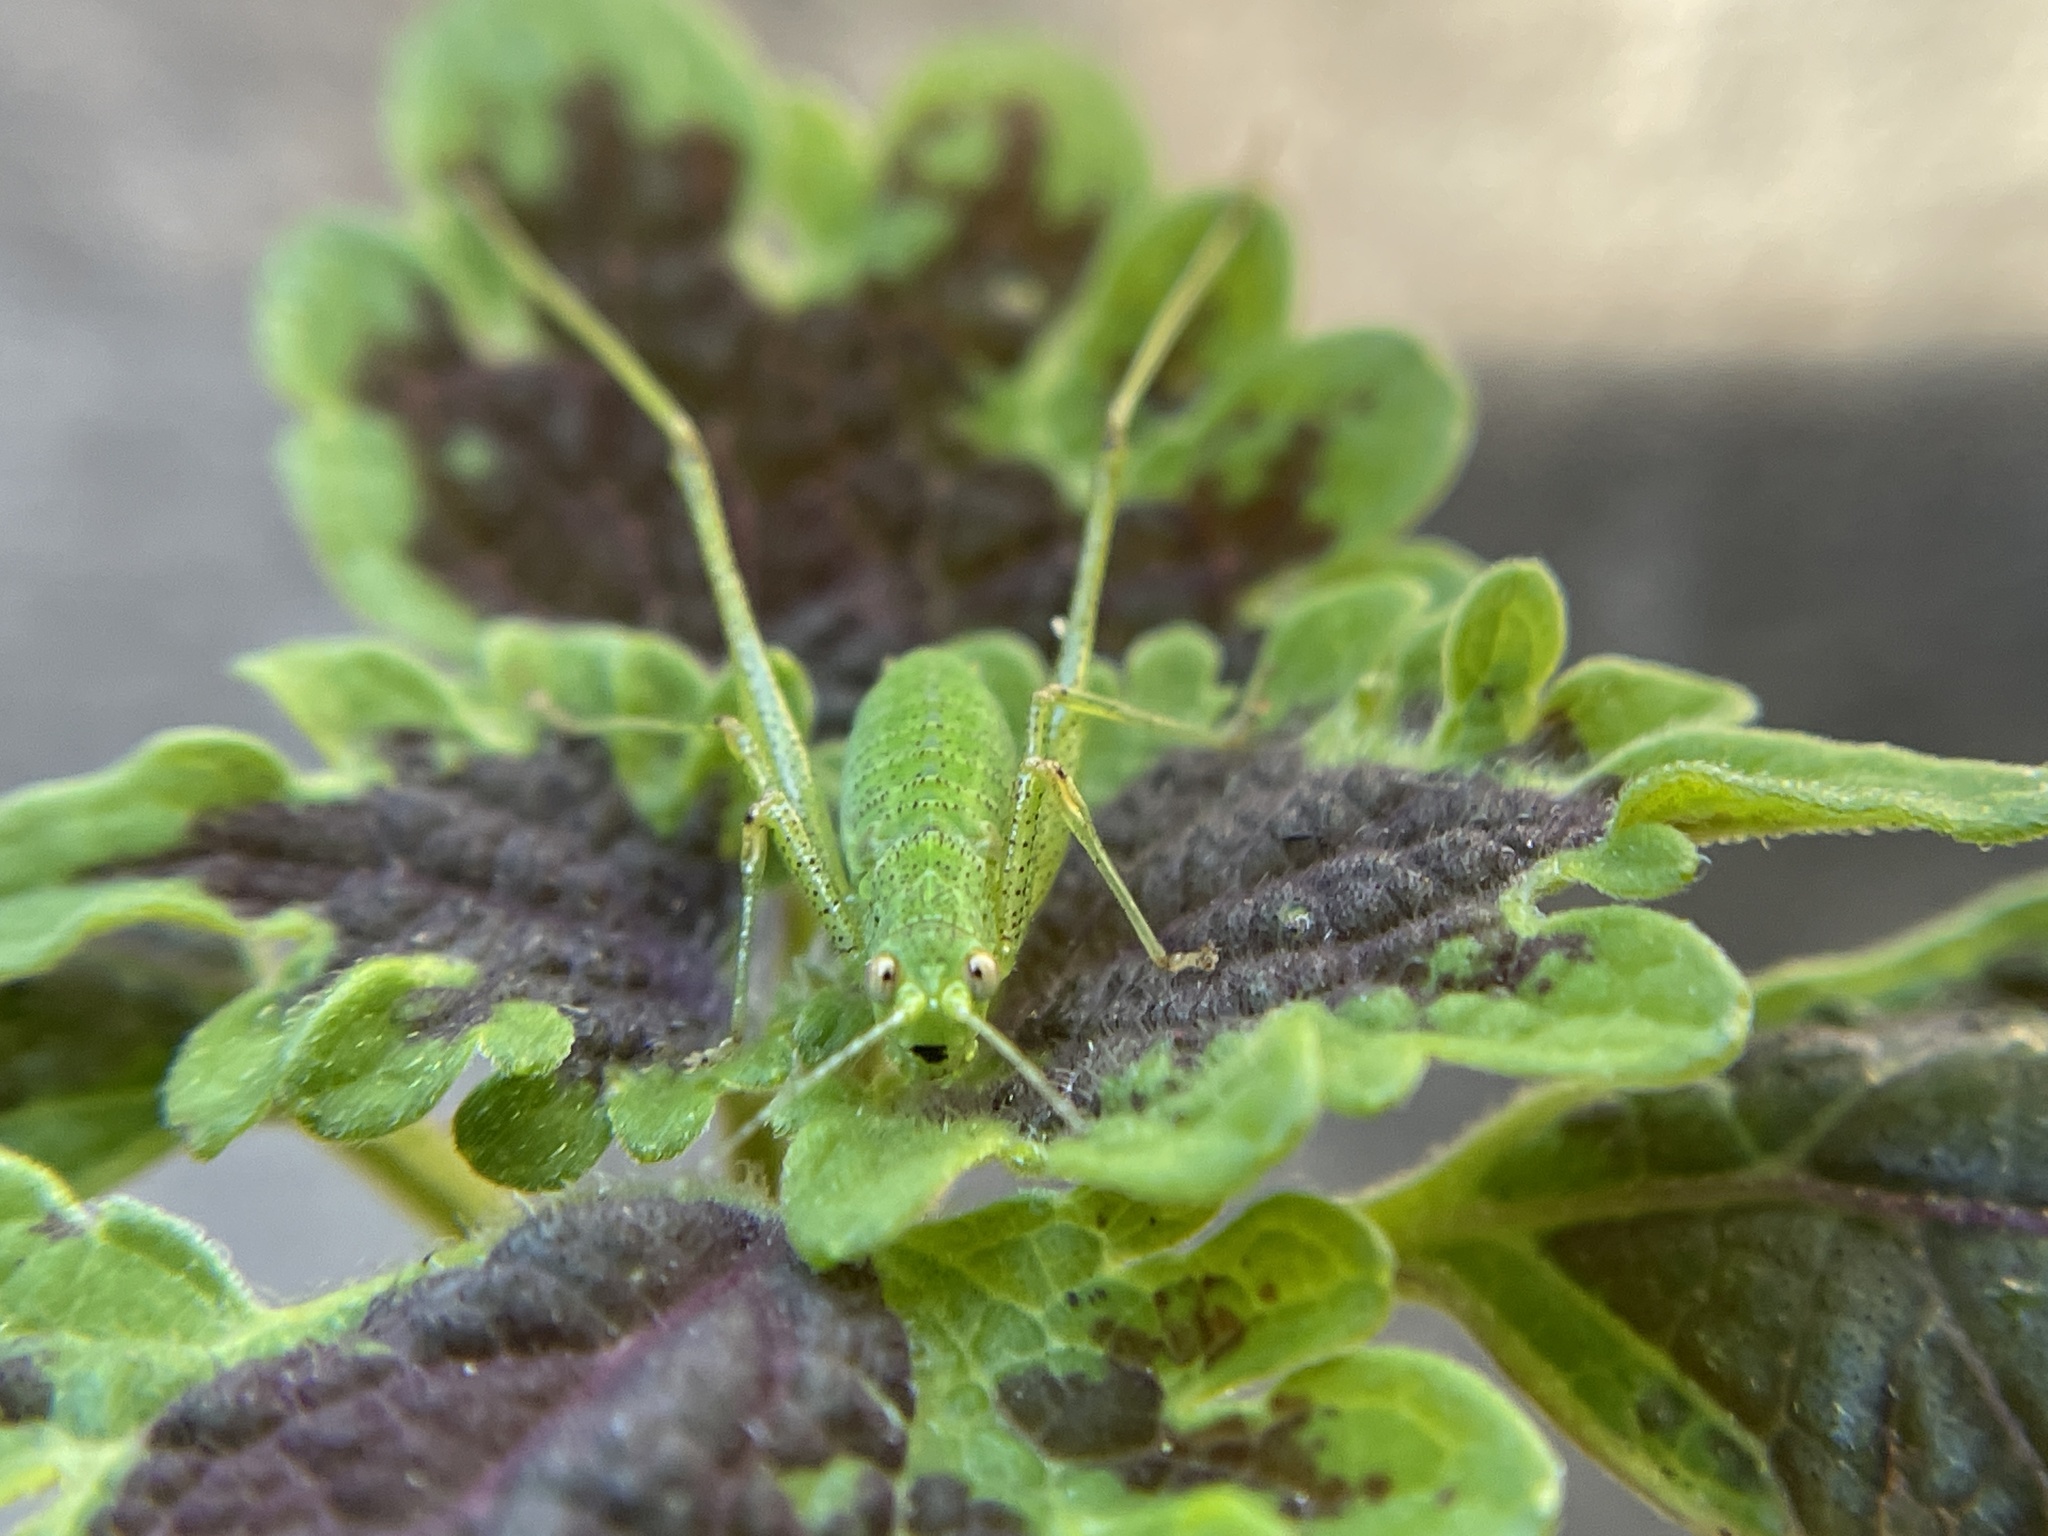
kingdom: Animalia
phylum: Arthropoda
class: Insecta
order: Orthoptera
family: Tettigoniidae
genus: Phaneroptera
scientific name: Phaneroptera nana
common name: Southern sickle bush-cricket
